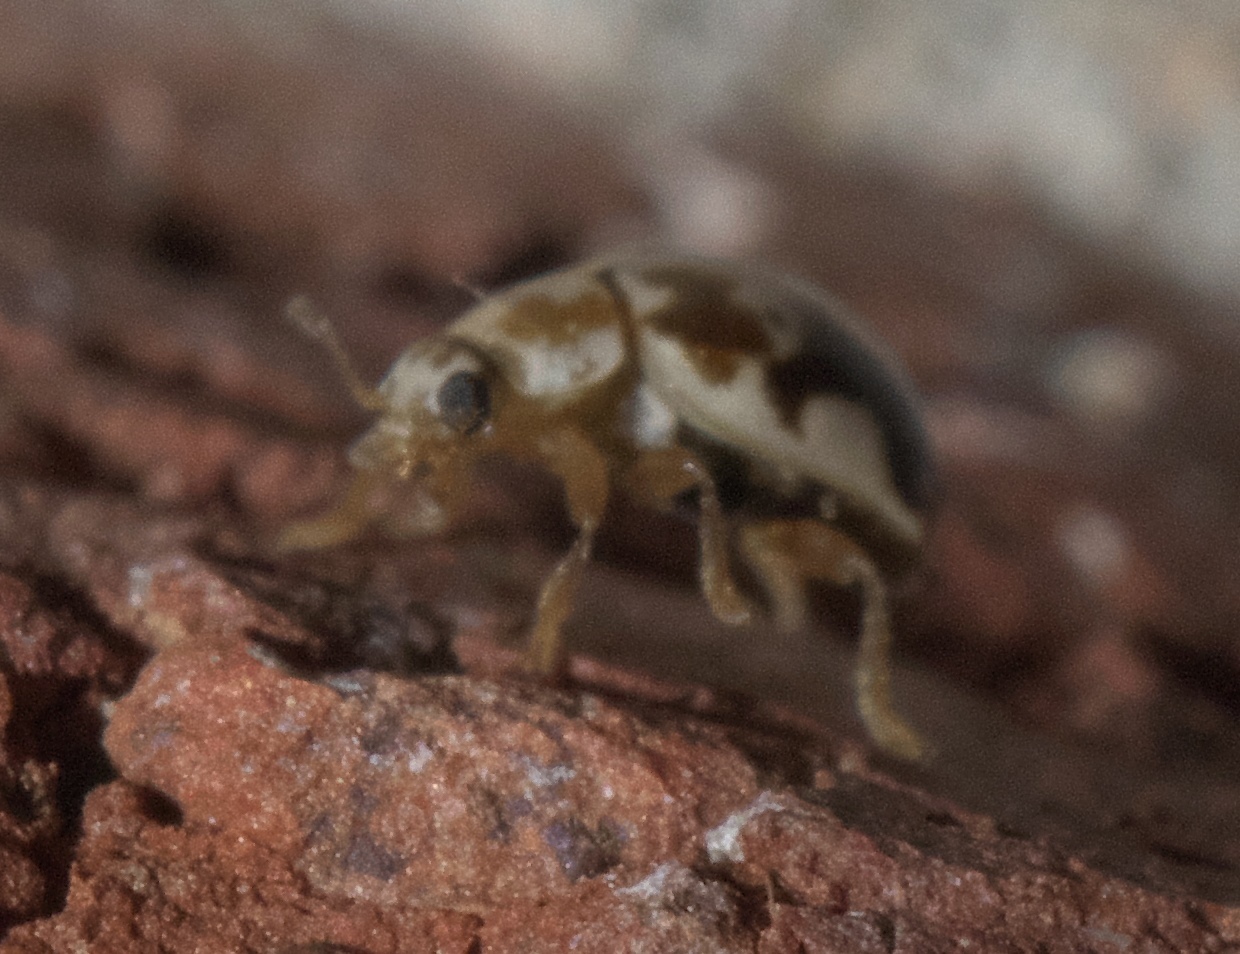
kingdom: Animalia
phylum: Arthropoda
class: Insecta
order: Coleoptera
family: Coccinellidae
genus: Psyllobora
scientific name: Psyllobora renifer
